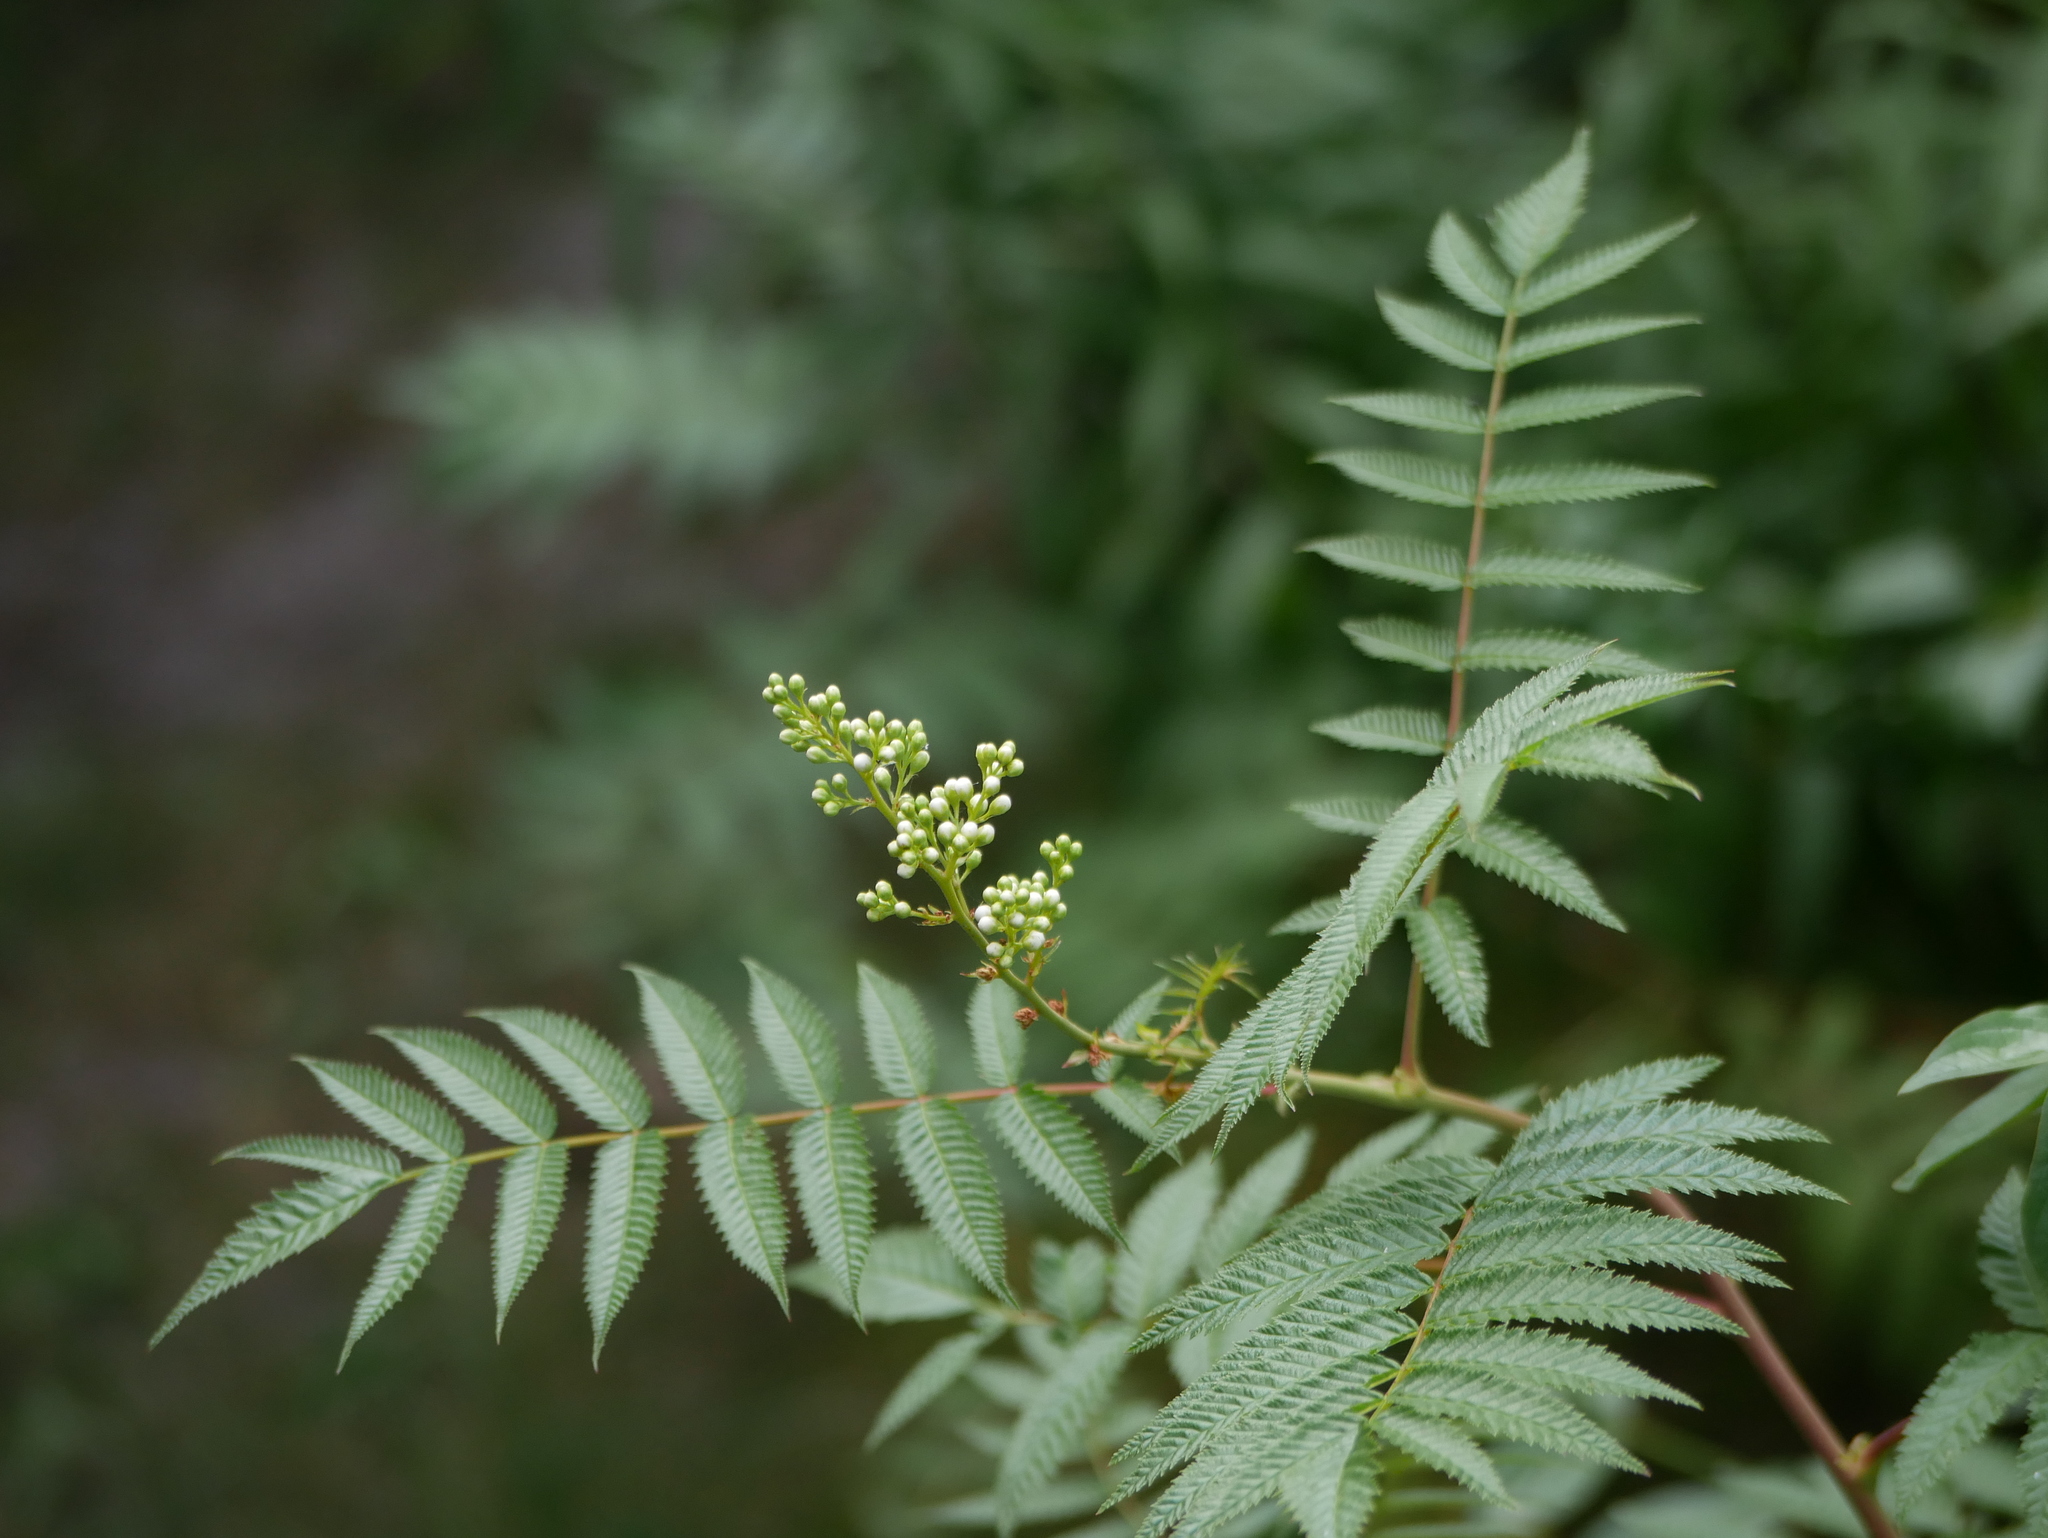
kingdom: Plantae
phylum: Tracheophyta
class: Magnoliopsida
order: Rosales
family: Rosaceae
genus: Sorbaria
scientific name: Sorbaria sorbifolia
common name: False spiraea
